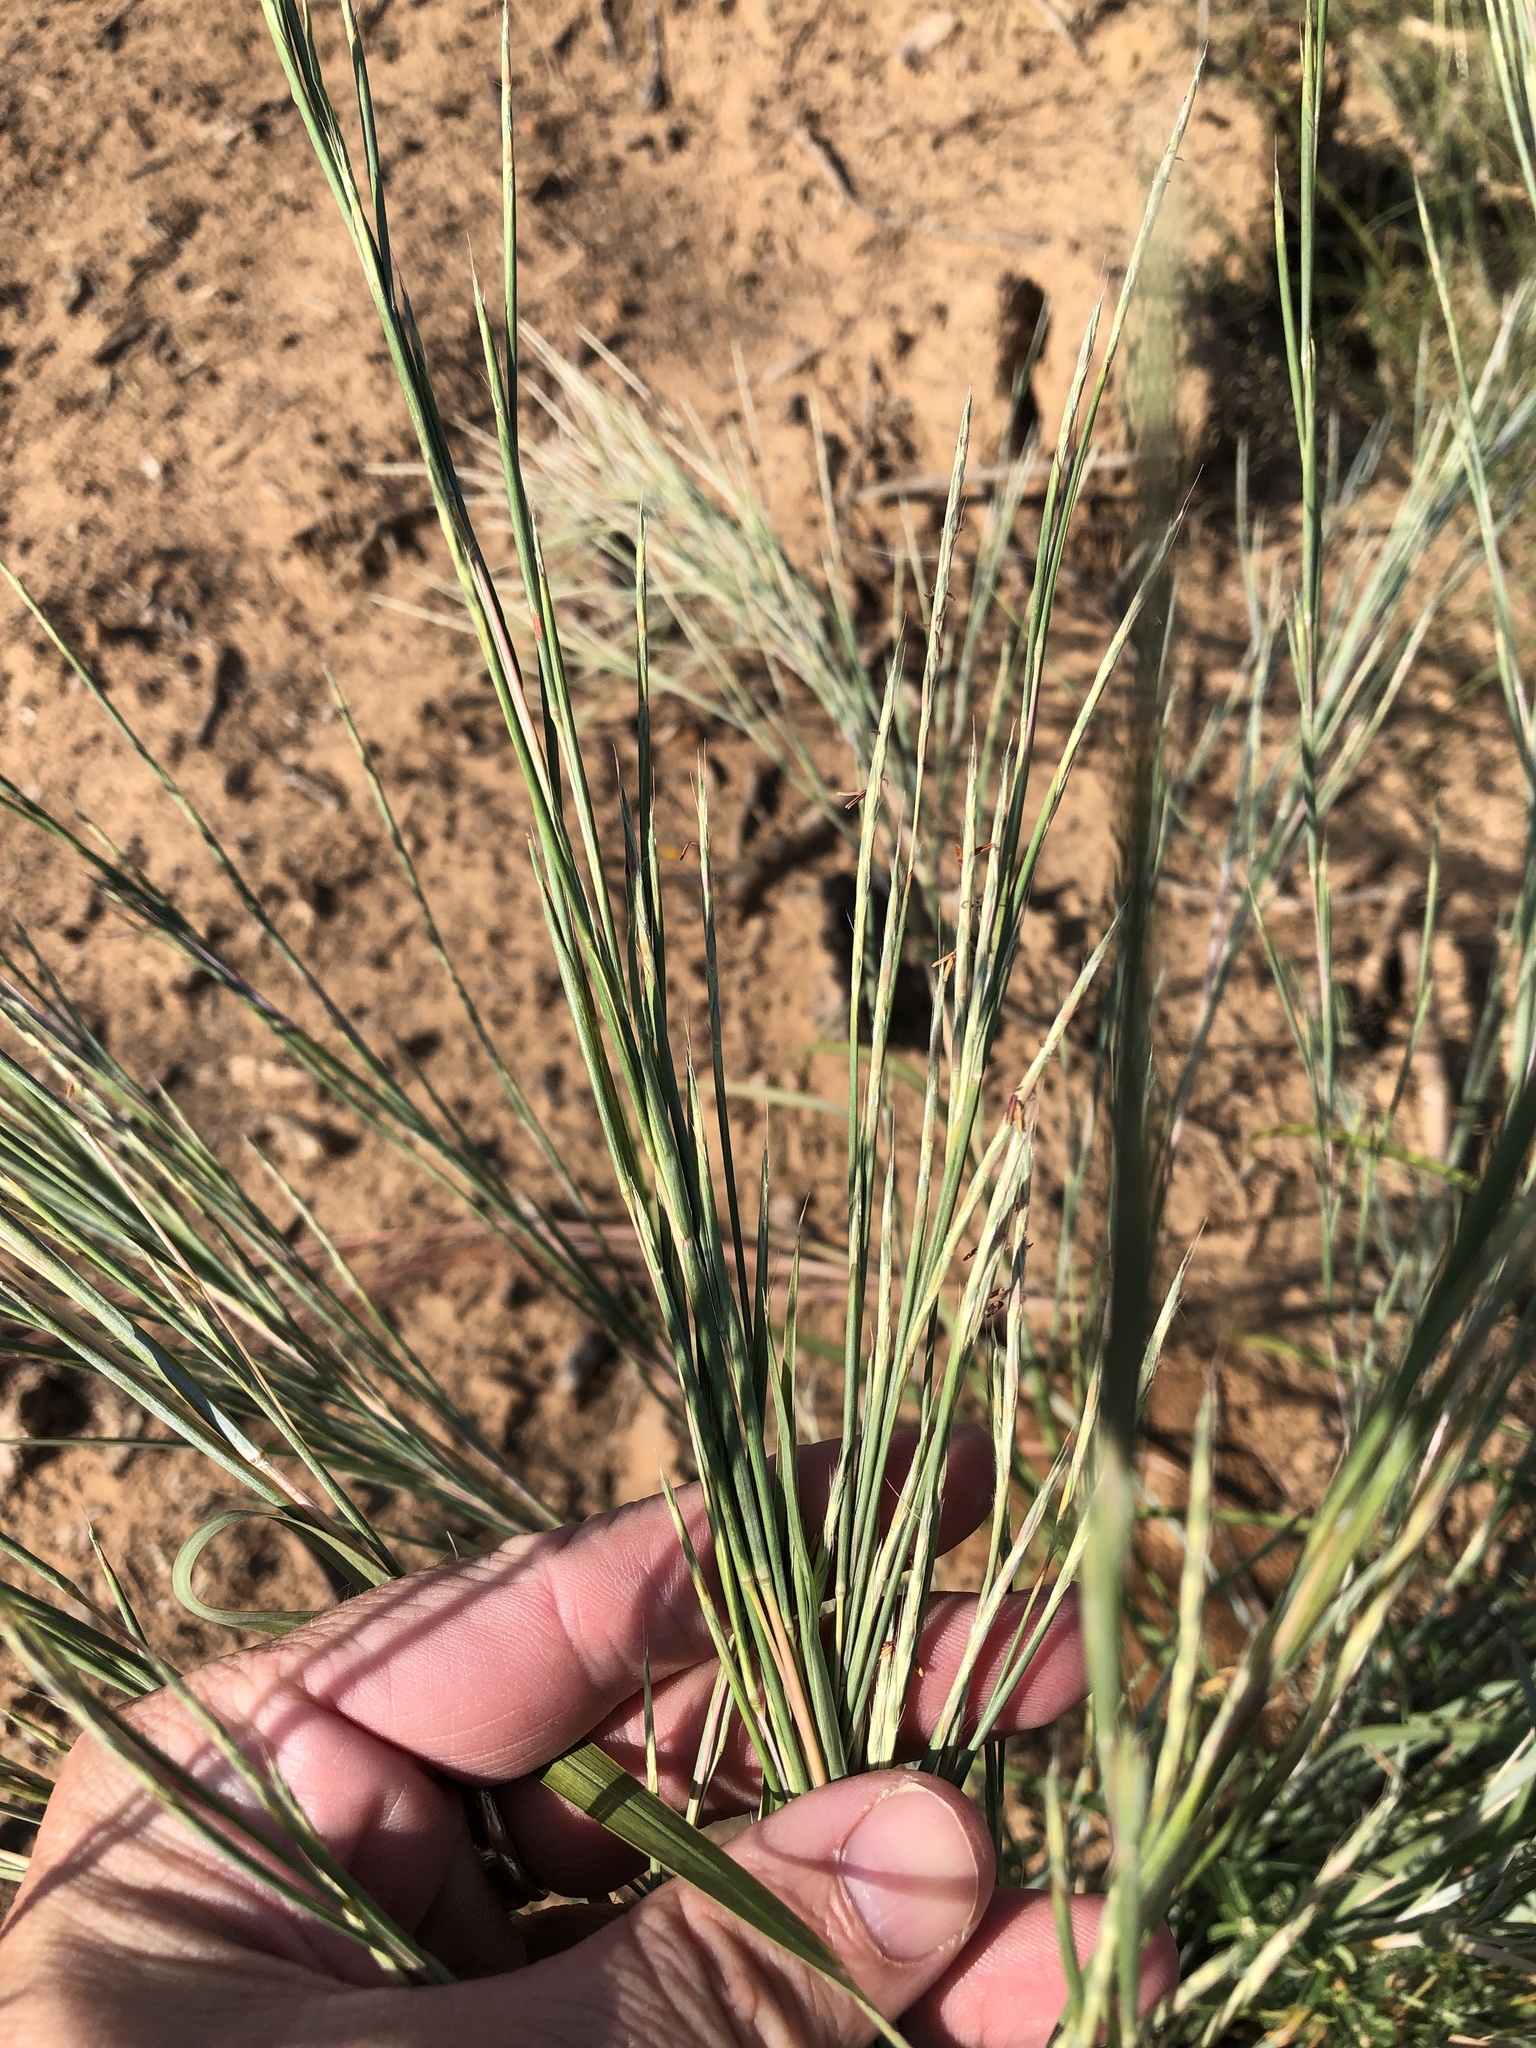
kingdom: Plantae
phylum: Tracheophyta
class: Liliopsida
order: Poales
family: Poaceae
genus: Schizachyrium
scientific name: Schizachyrium scoparium
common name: Little bluestem
